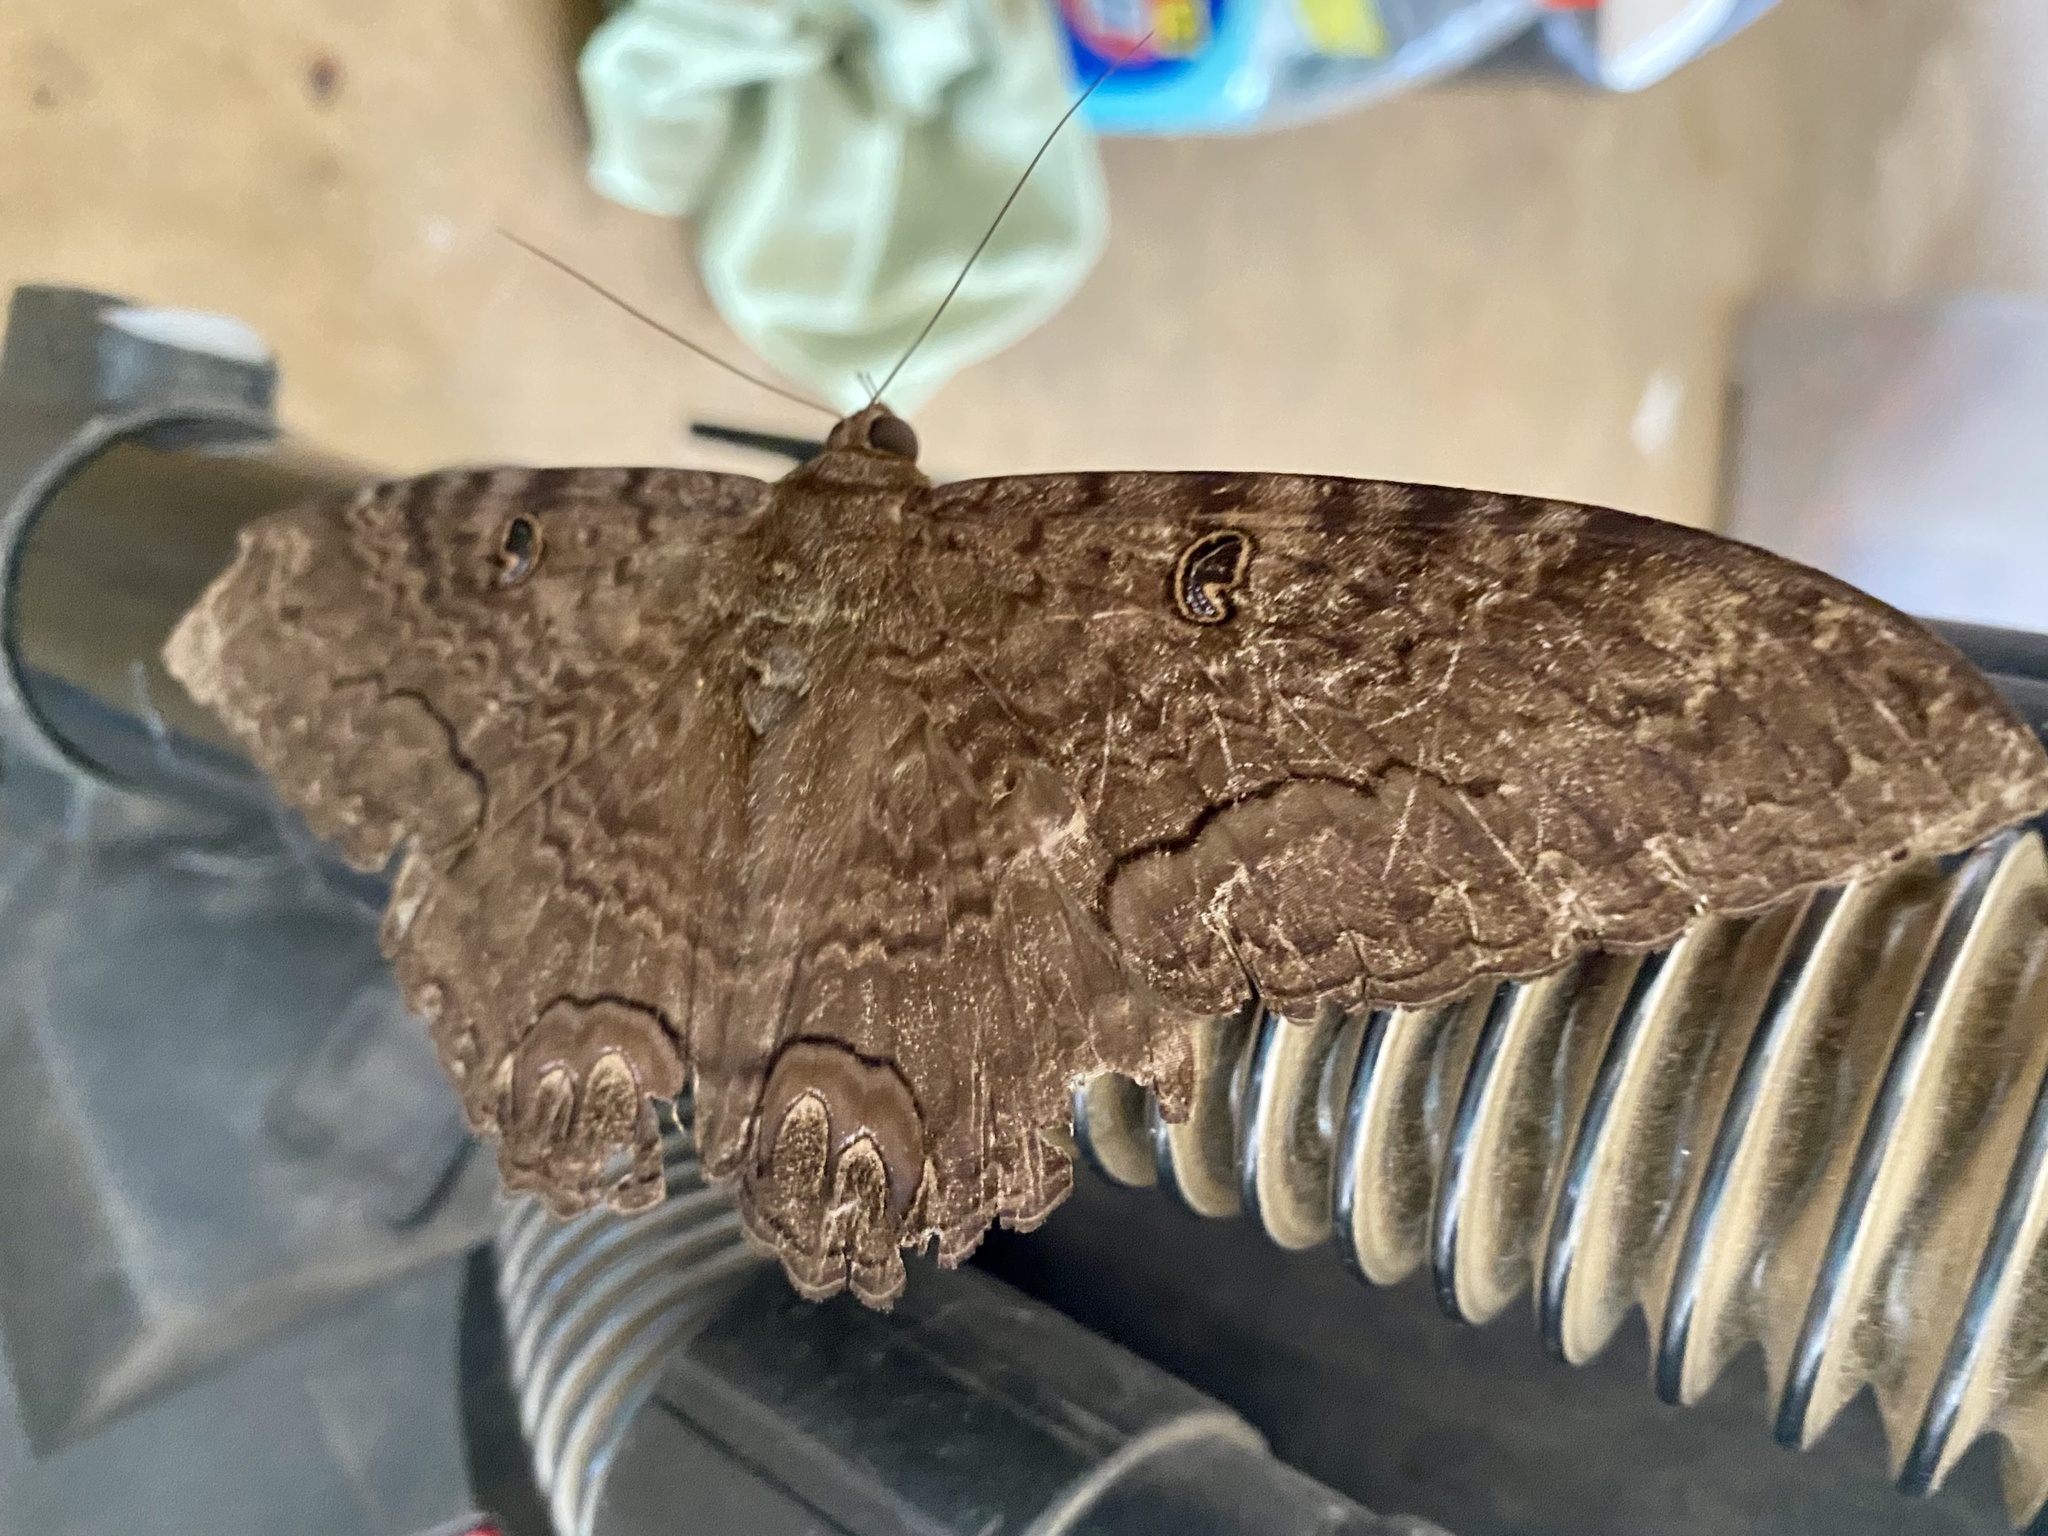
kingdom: Animalia
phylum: Arthropoda
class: Insecta
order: Lepidoptera
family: Erebidae
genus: Ascalapha
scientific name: Ascalapha odorata
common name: Black witch
